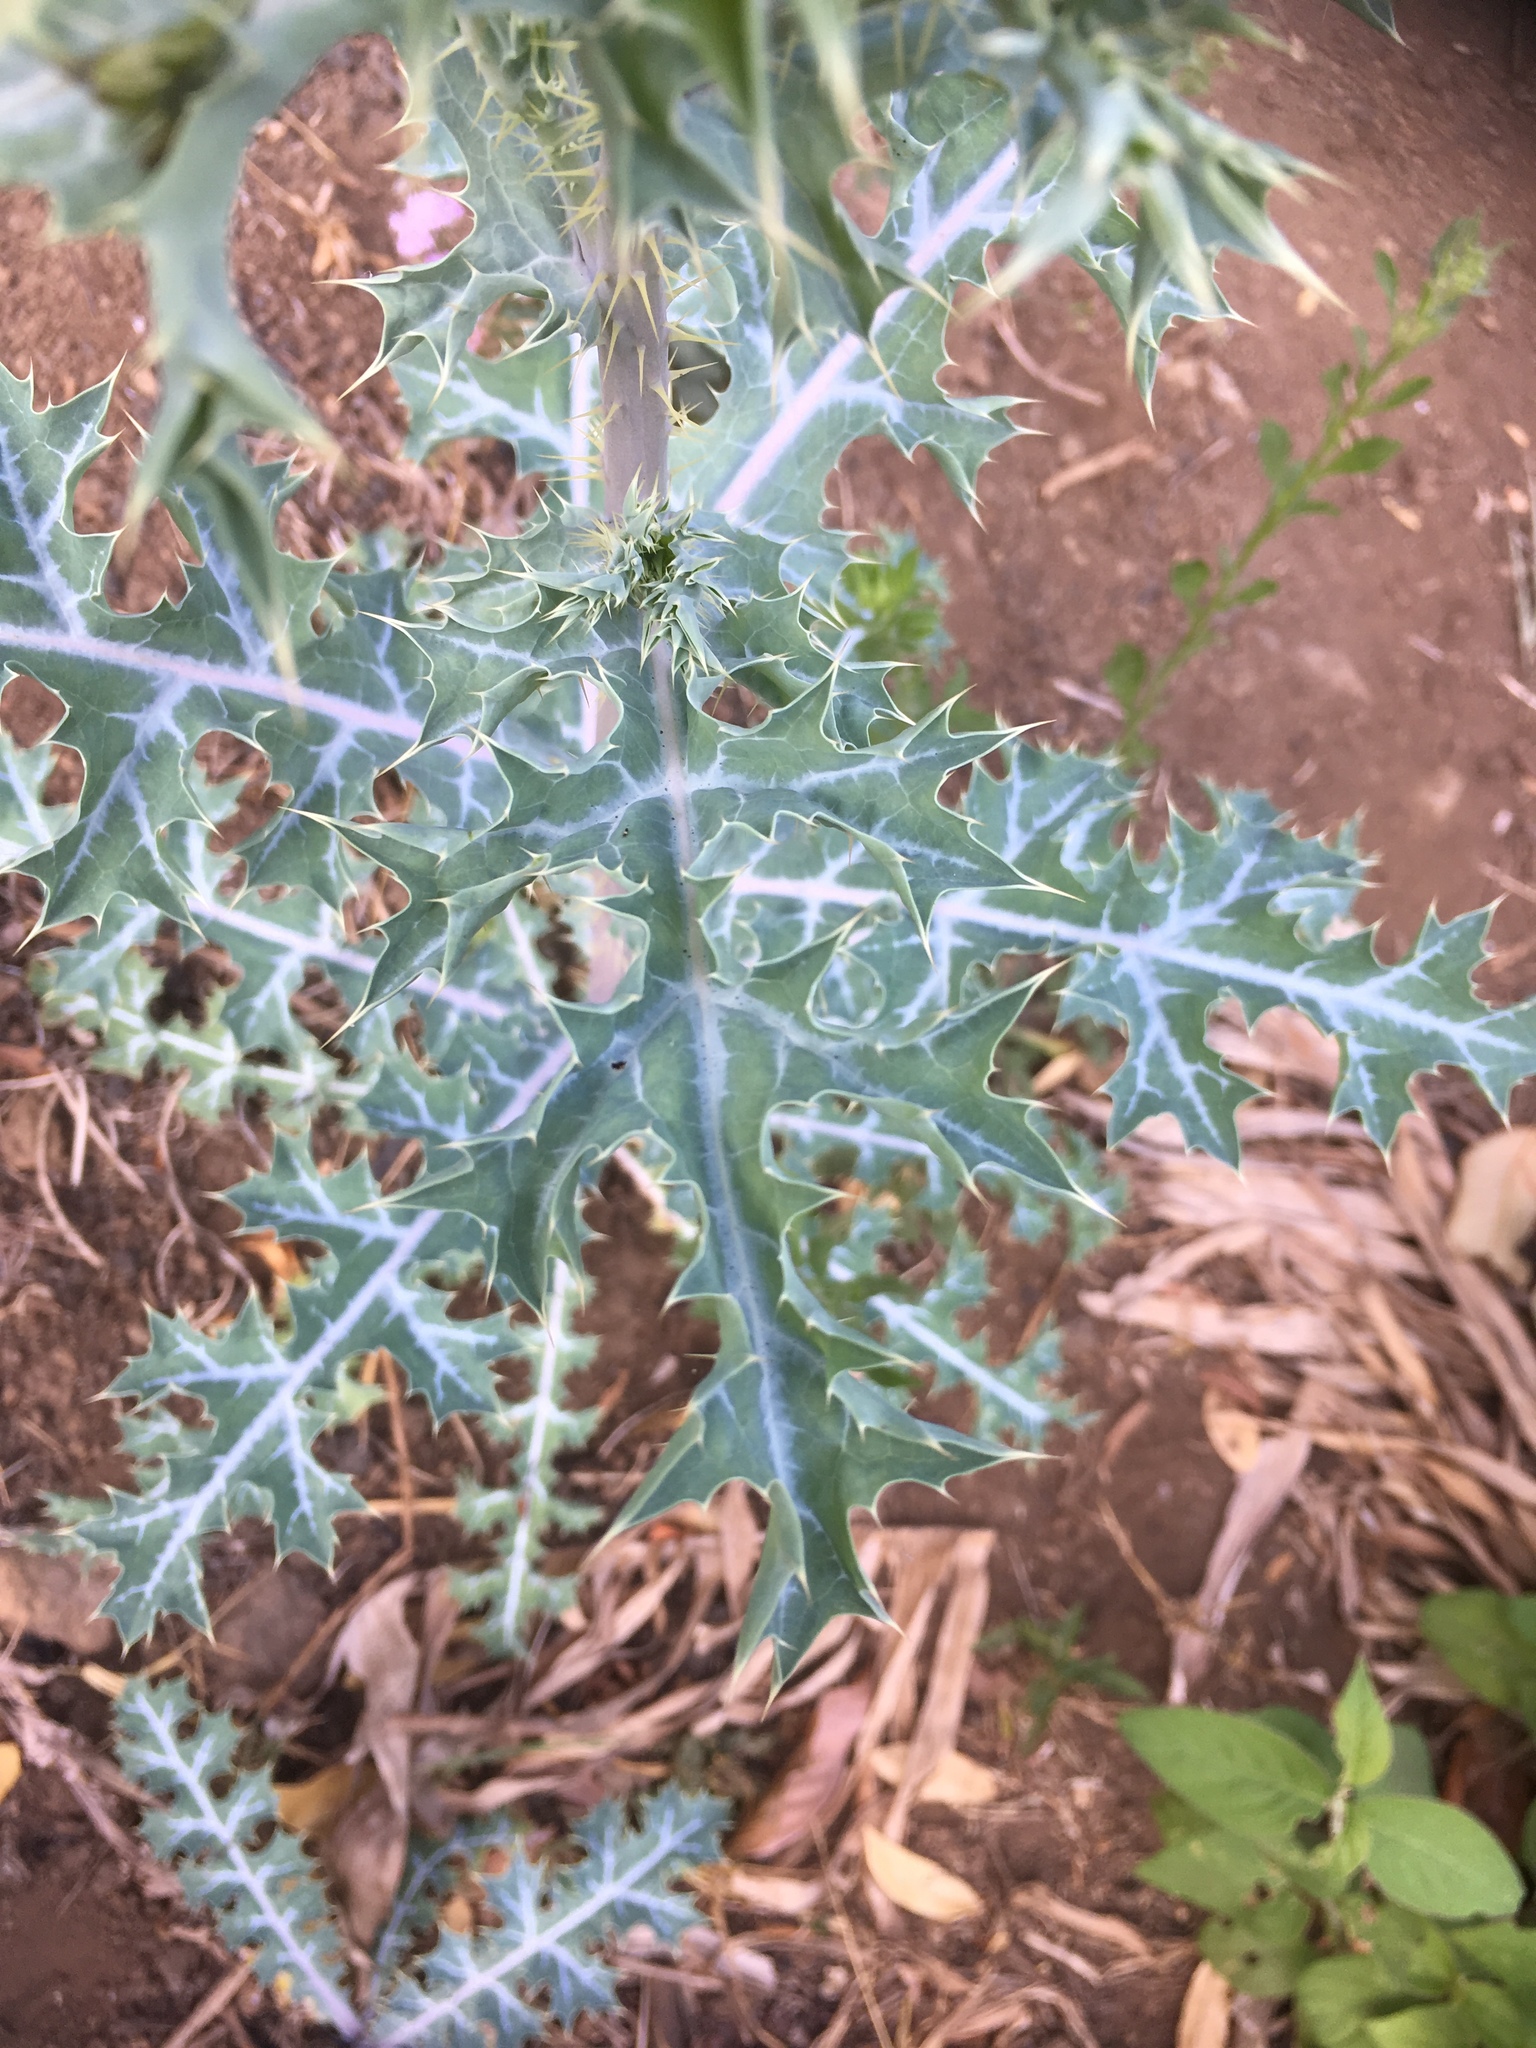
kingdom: Plantae
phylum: Tracheophyta
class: Magnoliopsida
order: Ranunculales
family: Papaveraceae
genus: Argemone
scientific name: Argemone ochroleuca
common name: White-flower mexican-poppy
